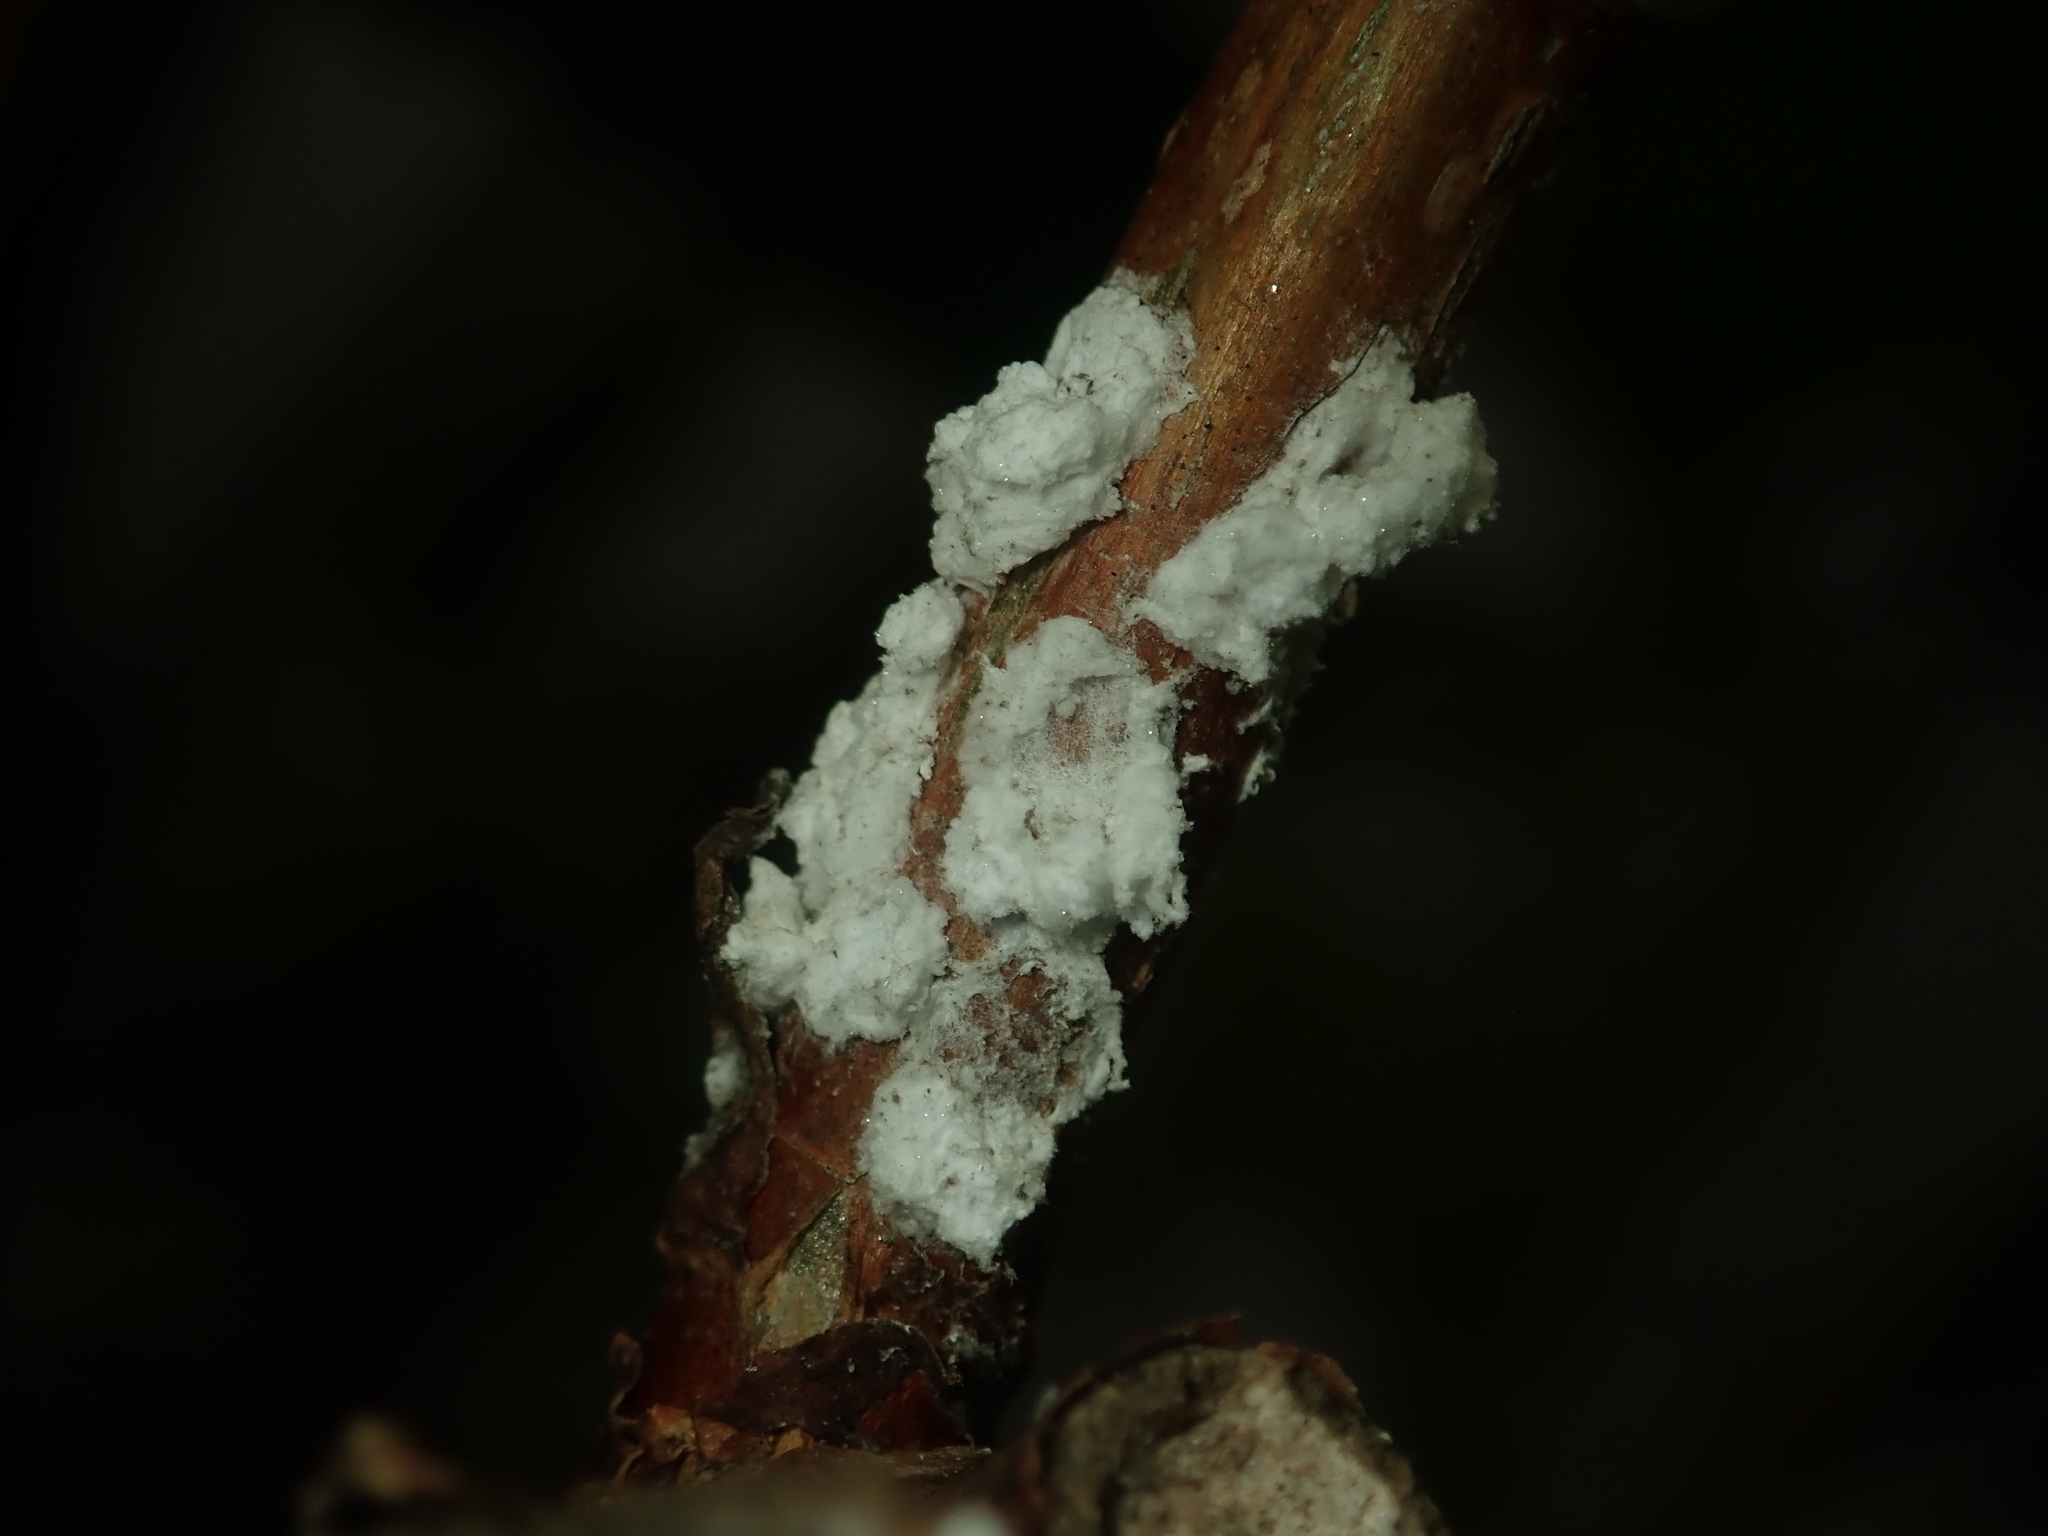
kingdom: Animalia
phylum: Arthropoda
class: Insecta
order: Hemiptera
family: Coccidae
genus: Pulvinaria
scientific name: Pulvinaria hydrangeae
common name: Cottony hydrangea scale
